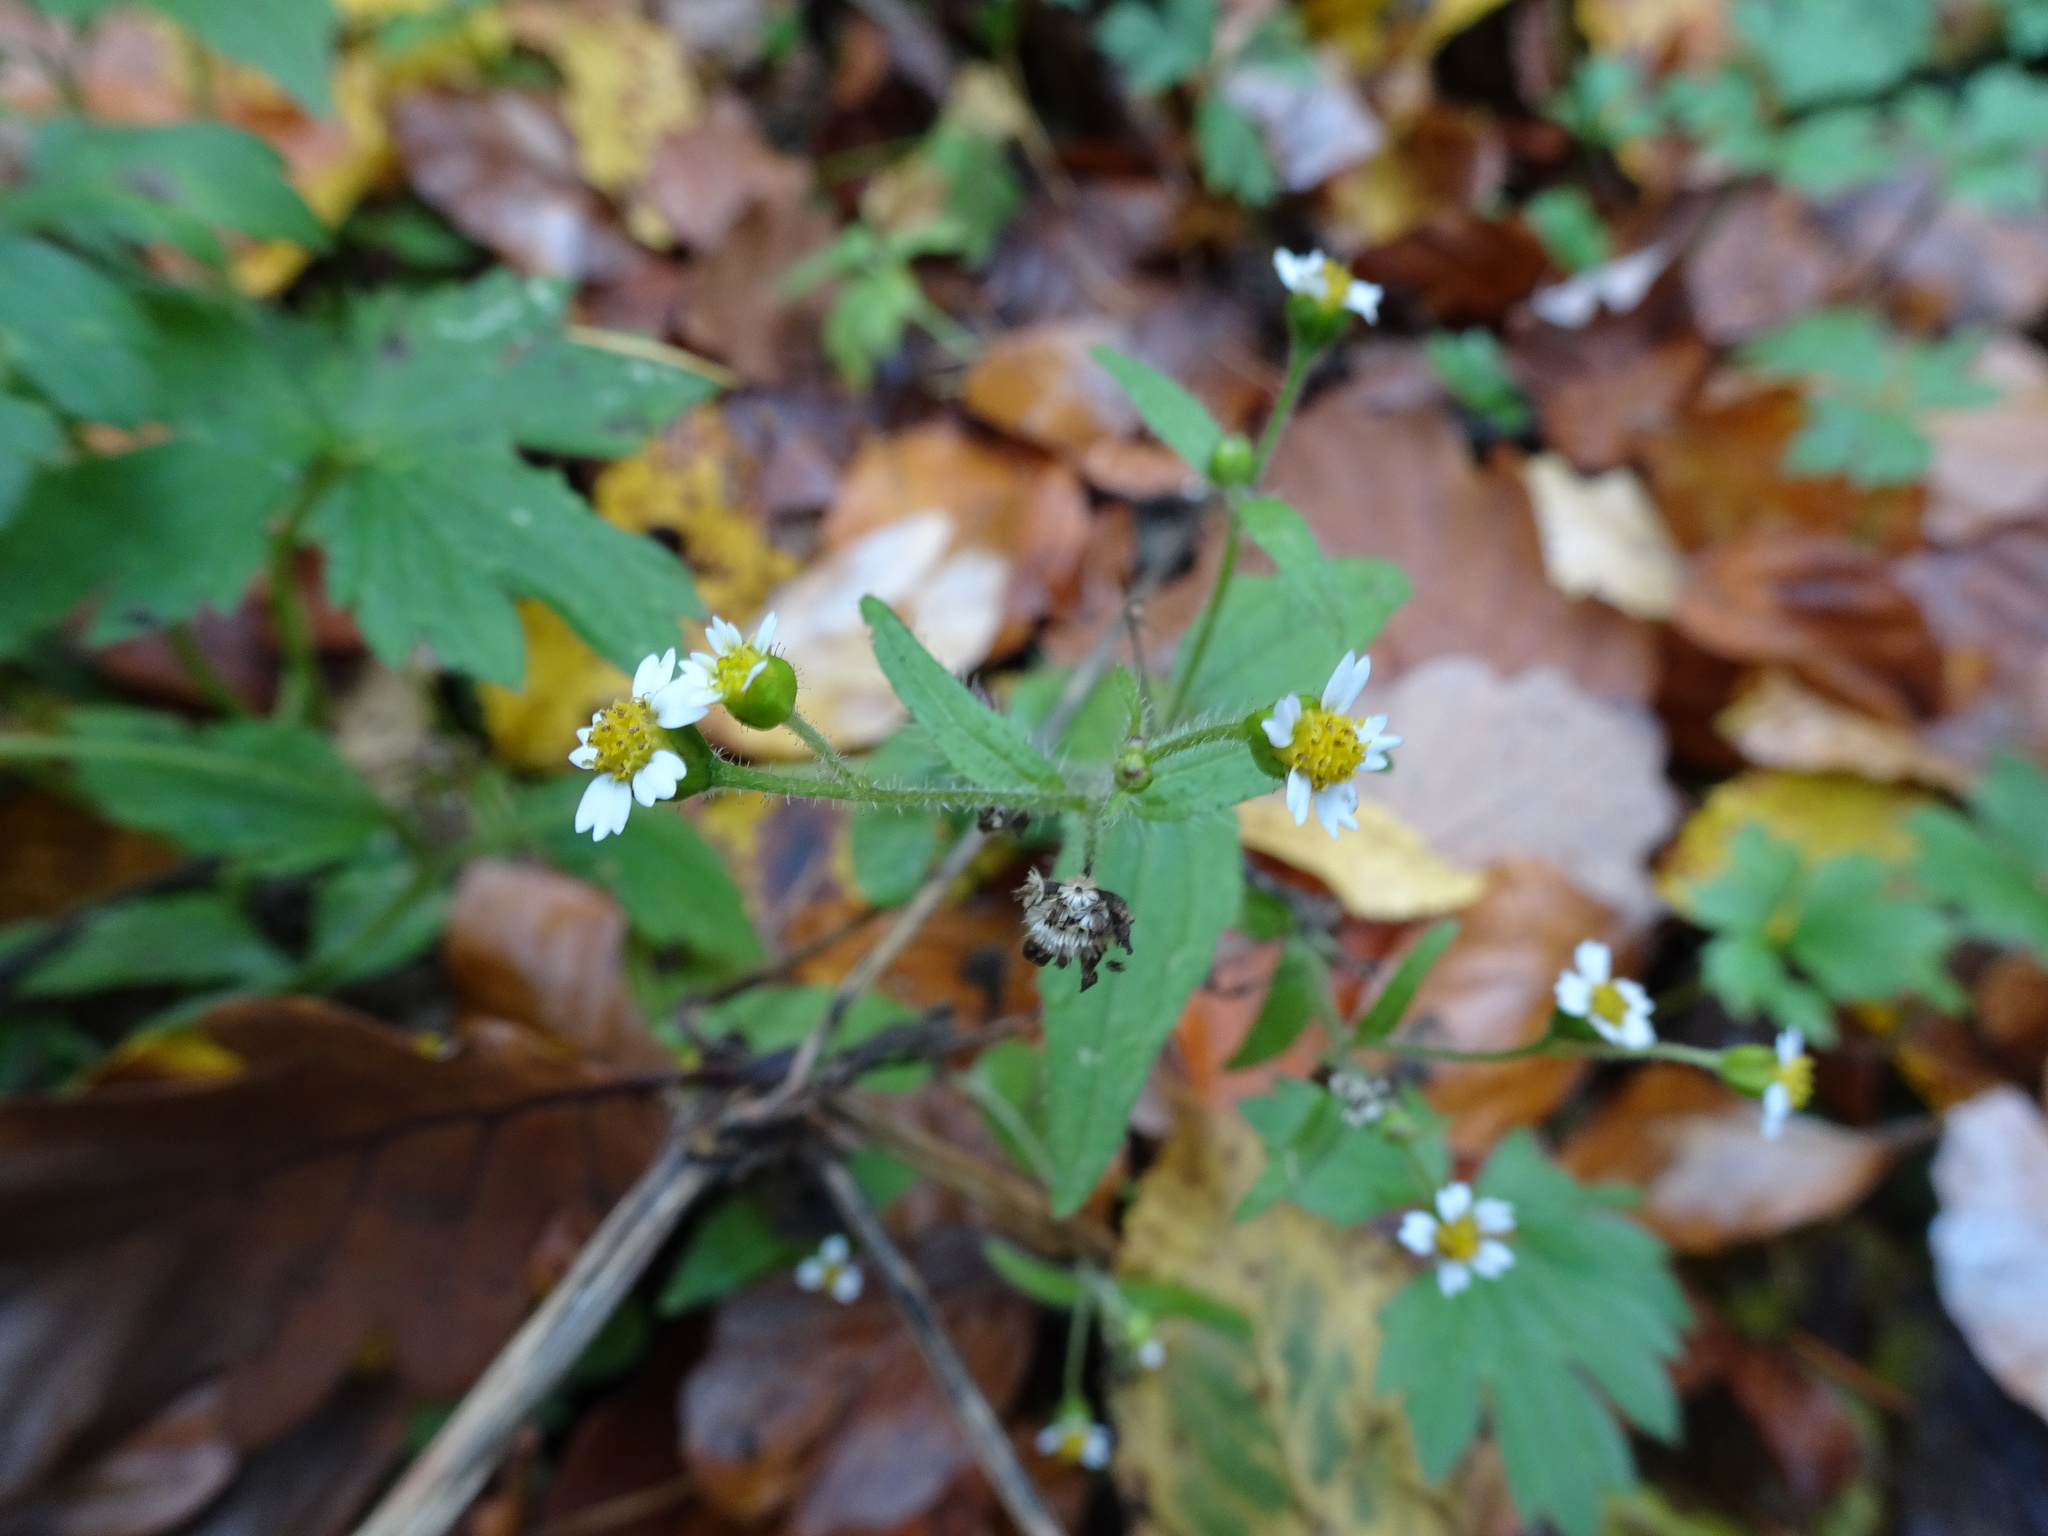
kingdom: Plantae
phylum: Tracheophyta
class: Magnoliopsida
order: Asterales
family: Asteraceae
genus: Galinsoga
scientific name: Galinsoga quadriradiata
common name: Shaggy soldier
